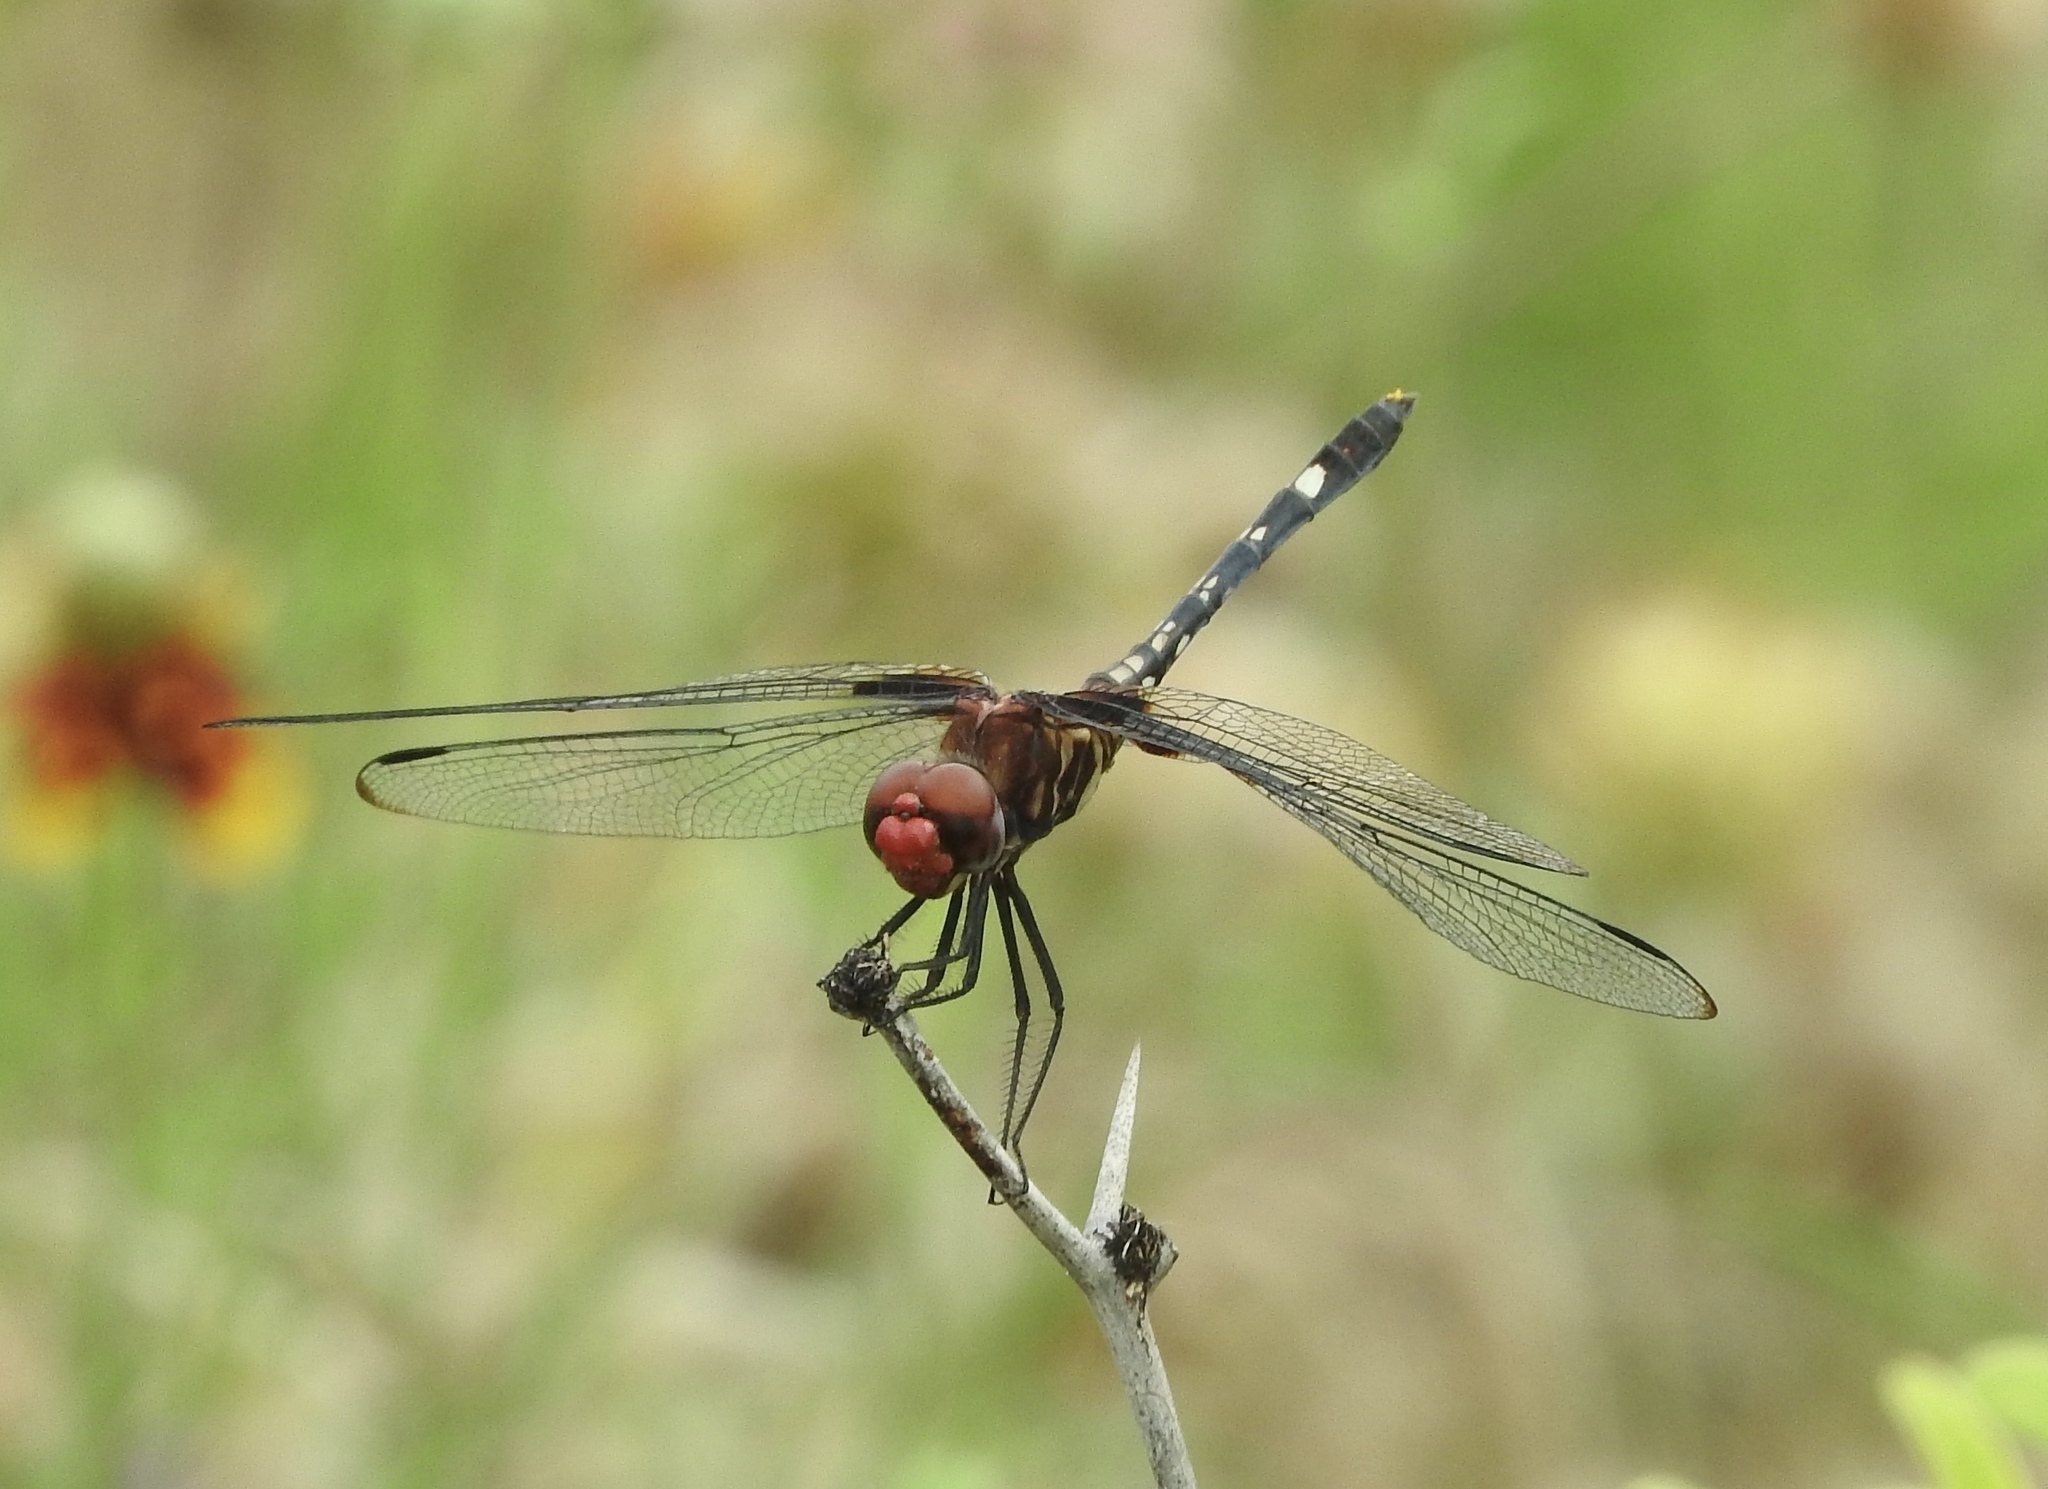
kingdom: Animalia
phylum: Arthropoda
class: Insecta
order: Odonata
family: Libellulidae
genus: Dythemis
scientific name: Dythemis fugax
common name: Checkered setwing
